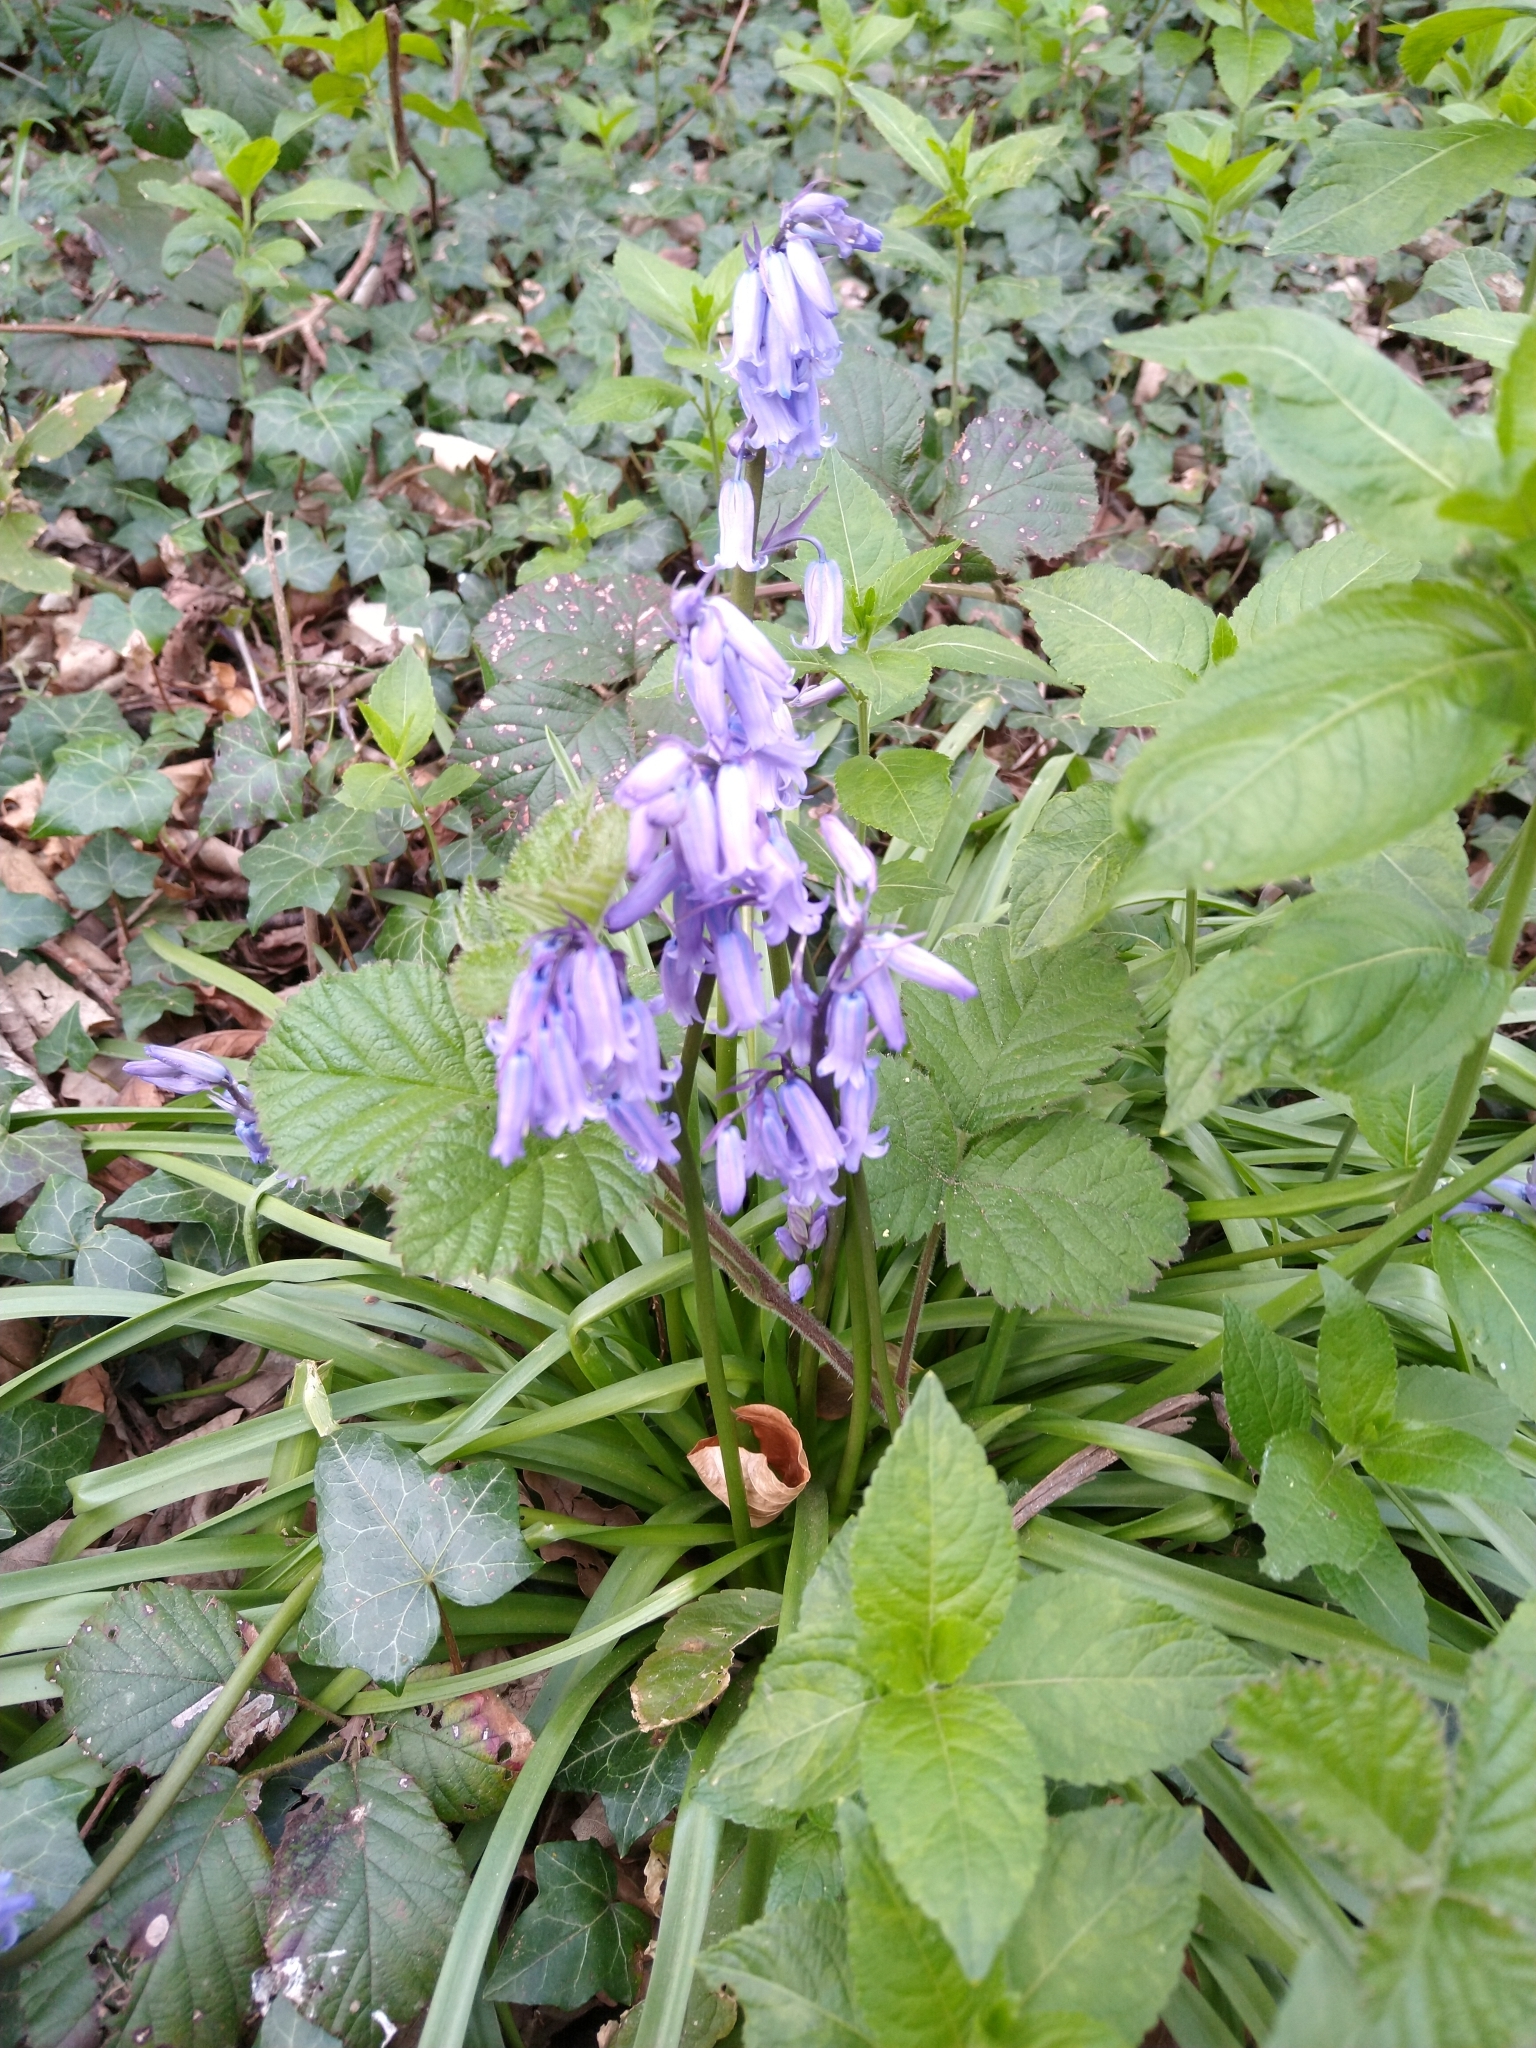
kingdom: Plantae
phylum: Tracheophyta
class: Liliopsida
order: Asparagales
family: Asparagaceae
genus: Hyacinthoides
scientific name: Hyacinthoides non-scripta
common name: Bluebell
